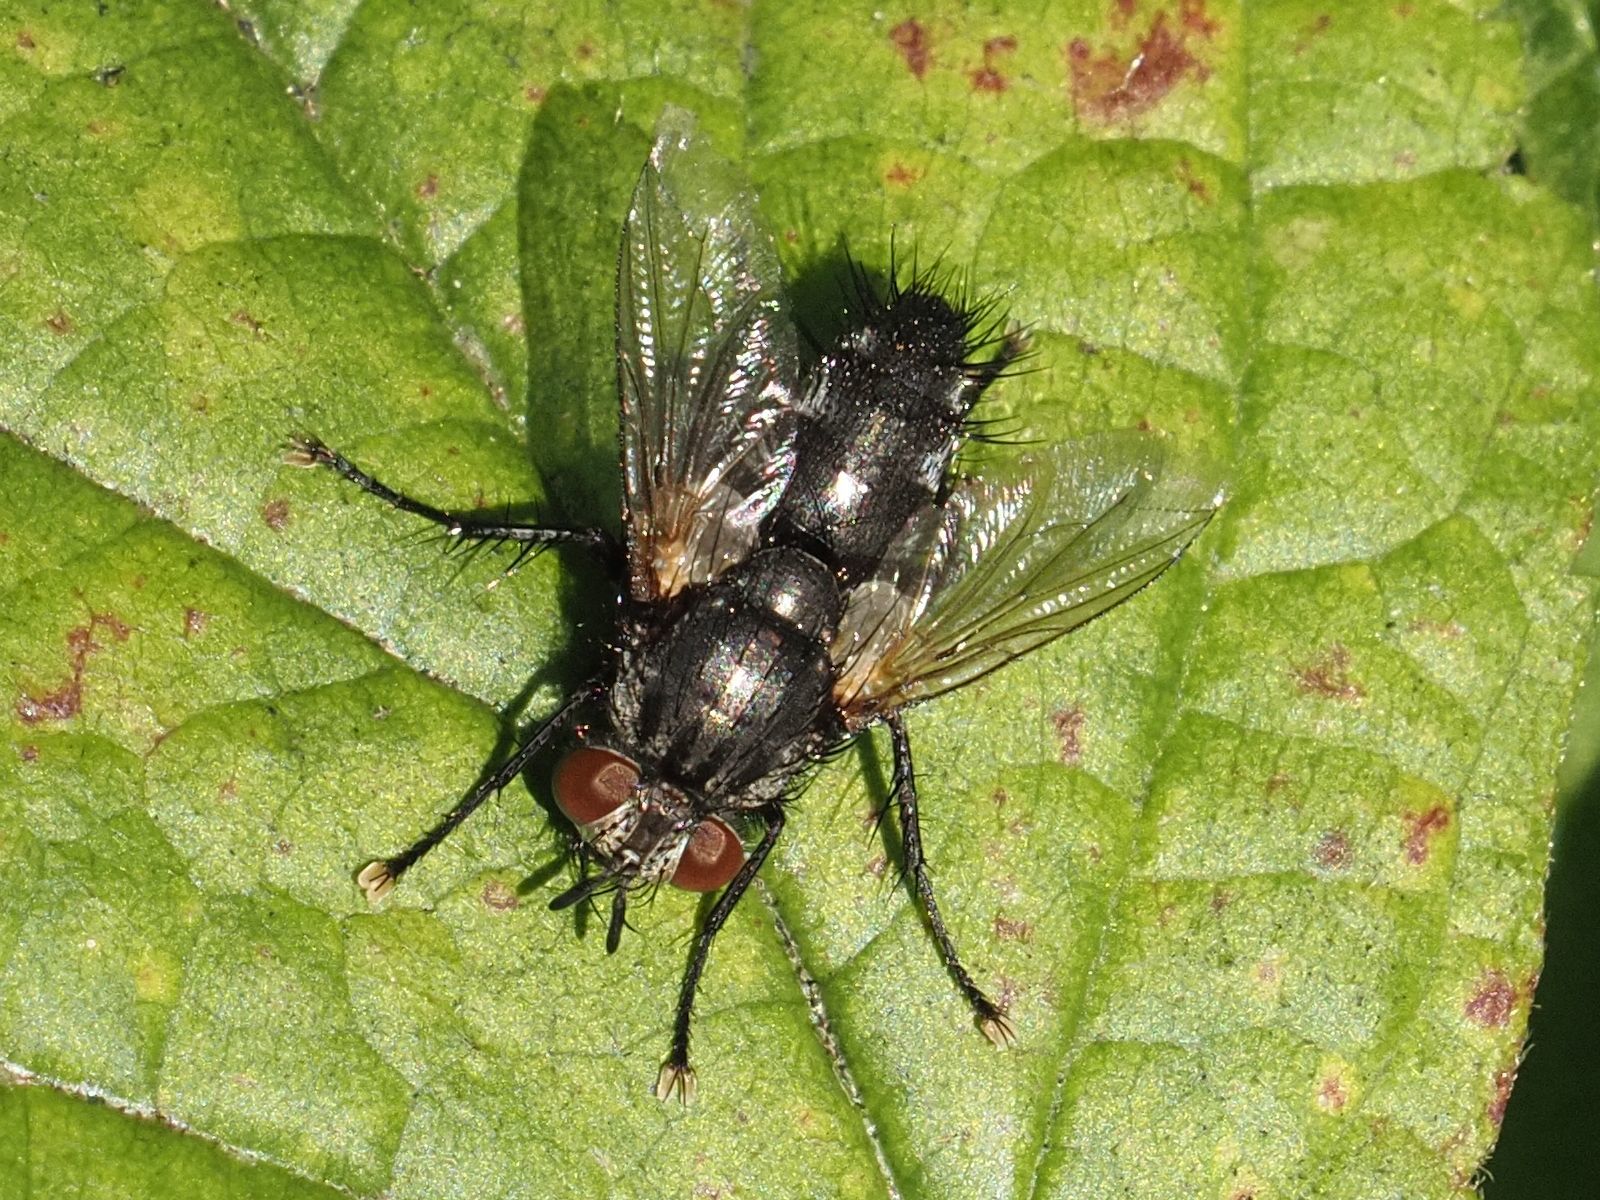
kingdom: Animalia
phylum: Arthropoda
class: Insecta
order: Diptera
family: Tachinidae
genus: Voria
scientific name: Voria ruralis
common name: Parasitic fly
